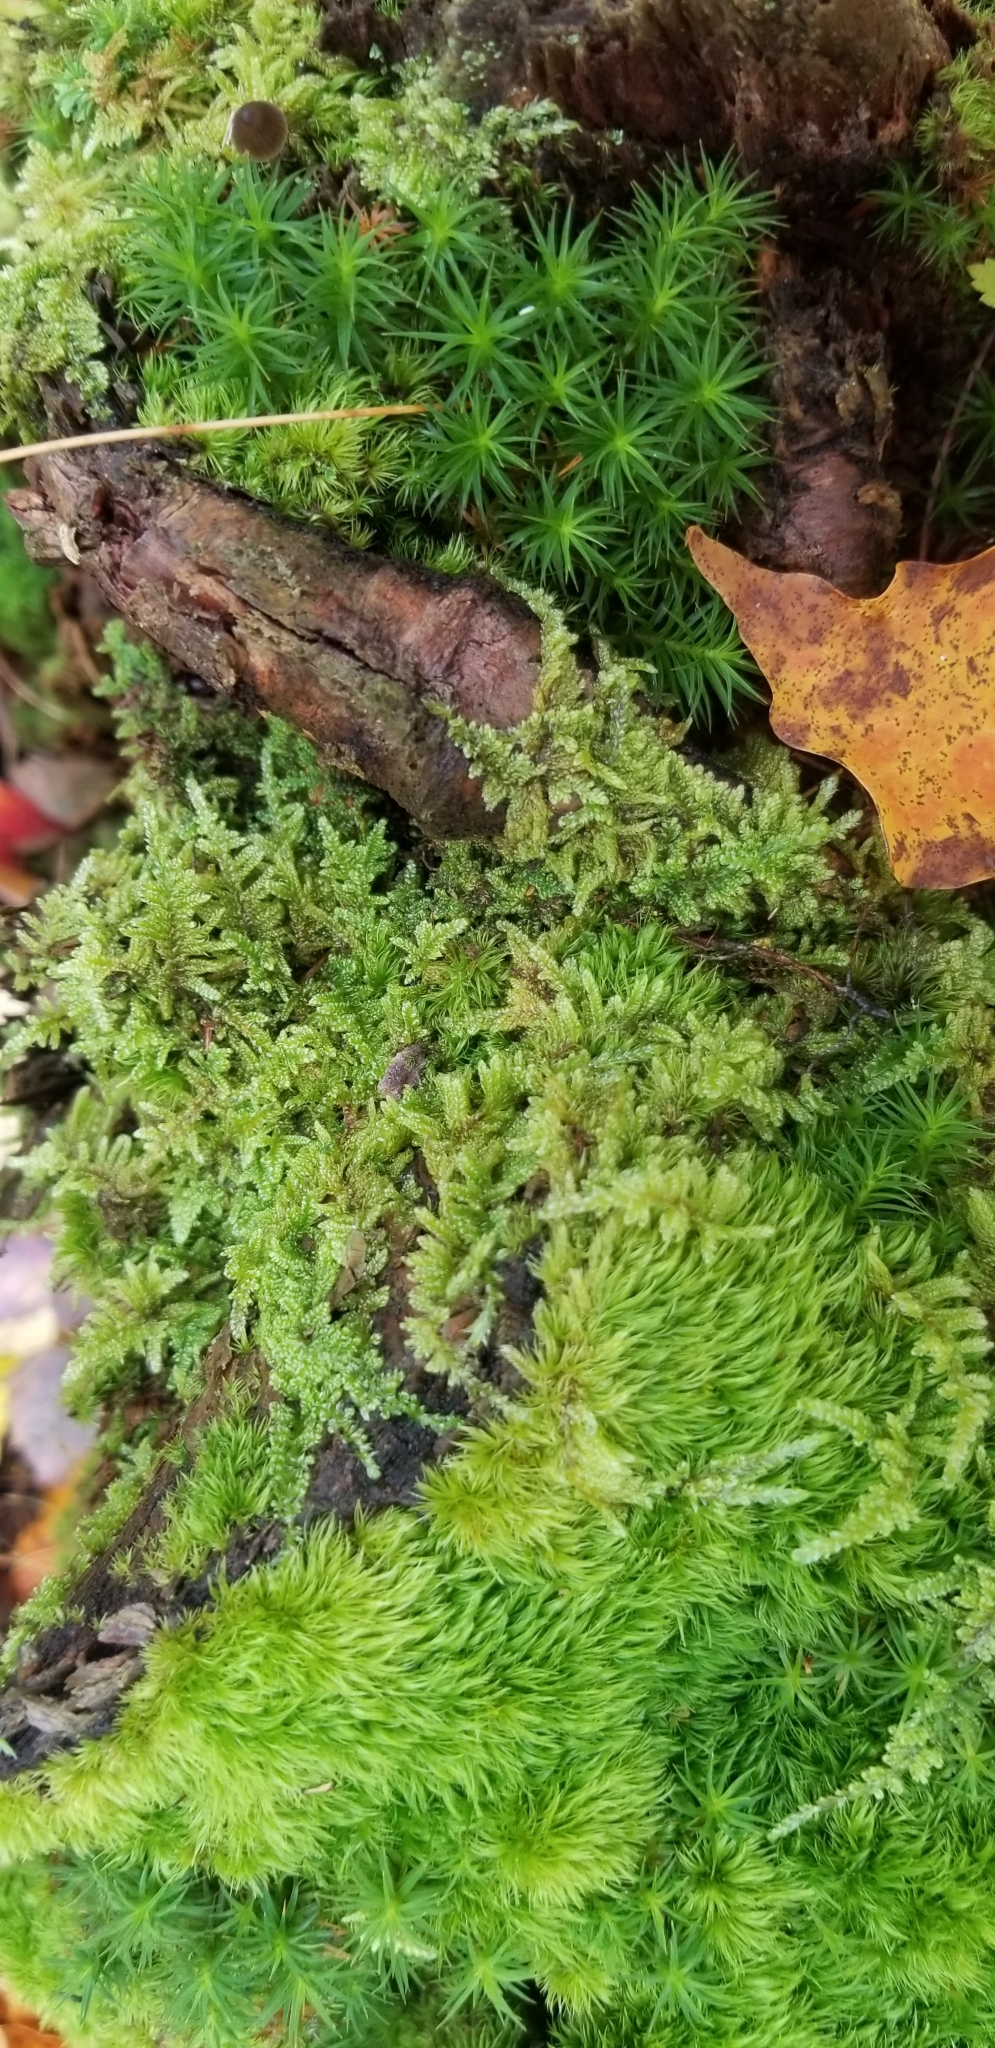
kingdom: Plantae
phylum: Bryophyta
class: Bryopsida
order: Hypnales
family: Callicladiaceae
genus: Callicladium
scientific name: Callicladium imponens
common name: Brocade moss
